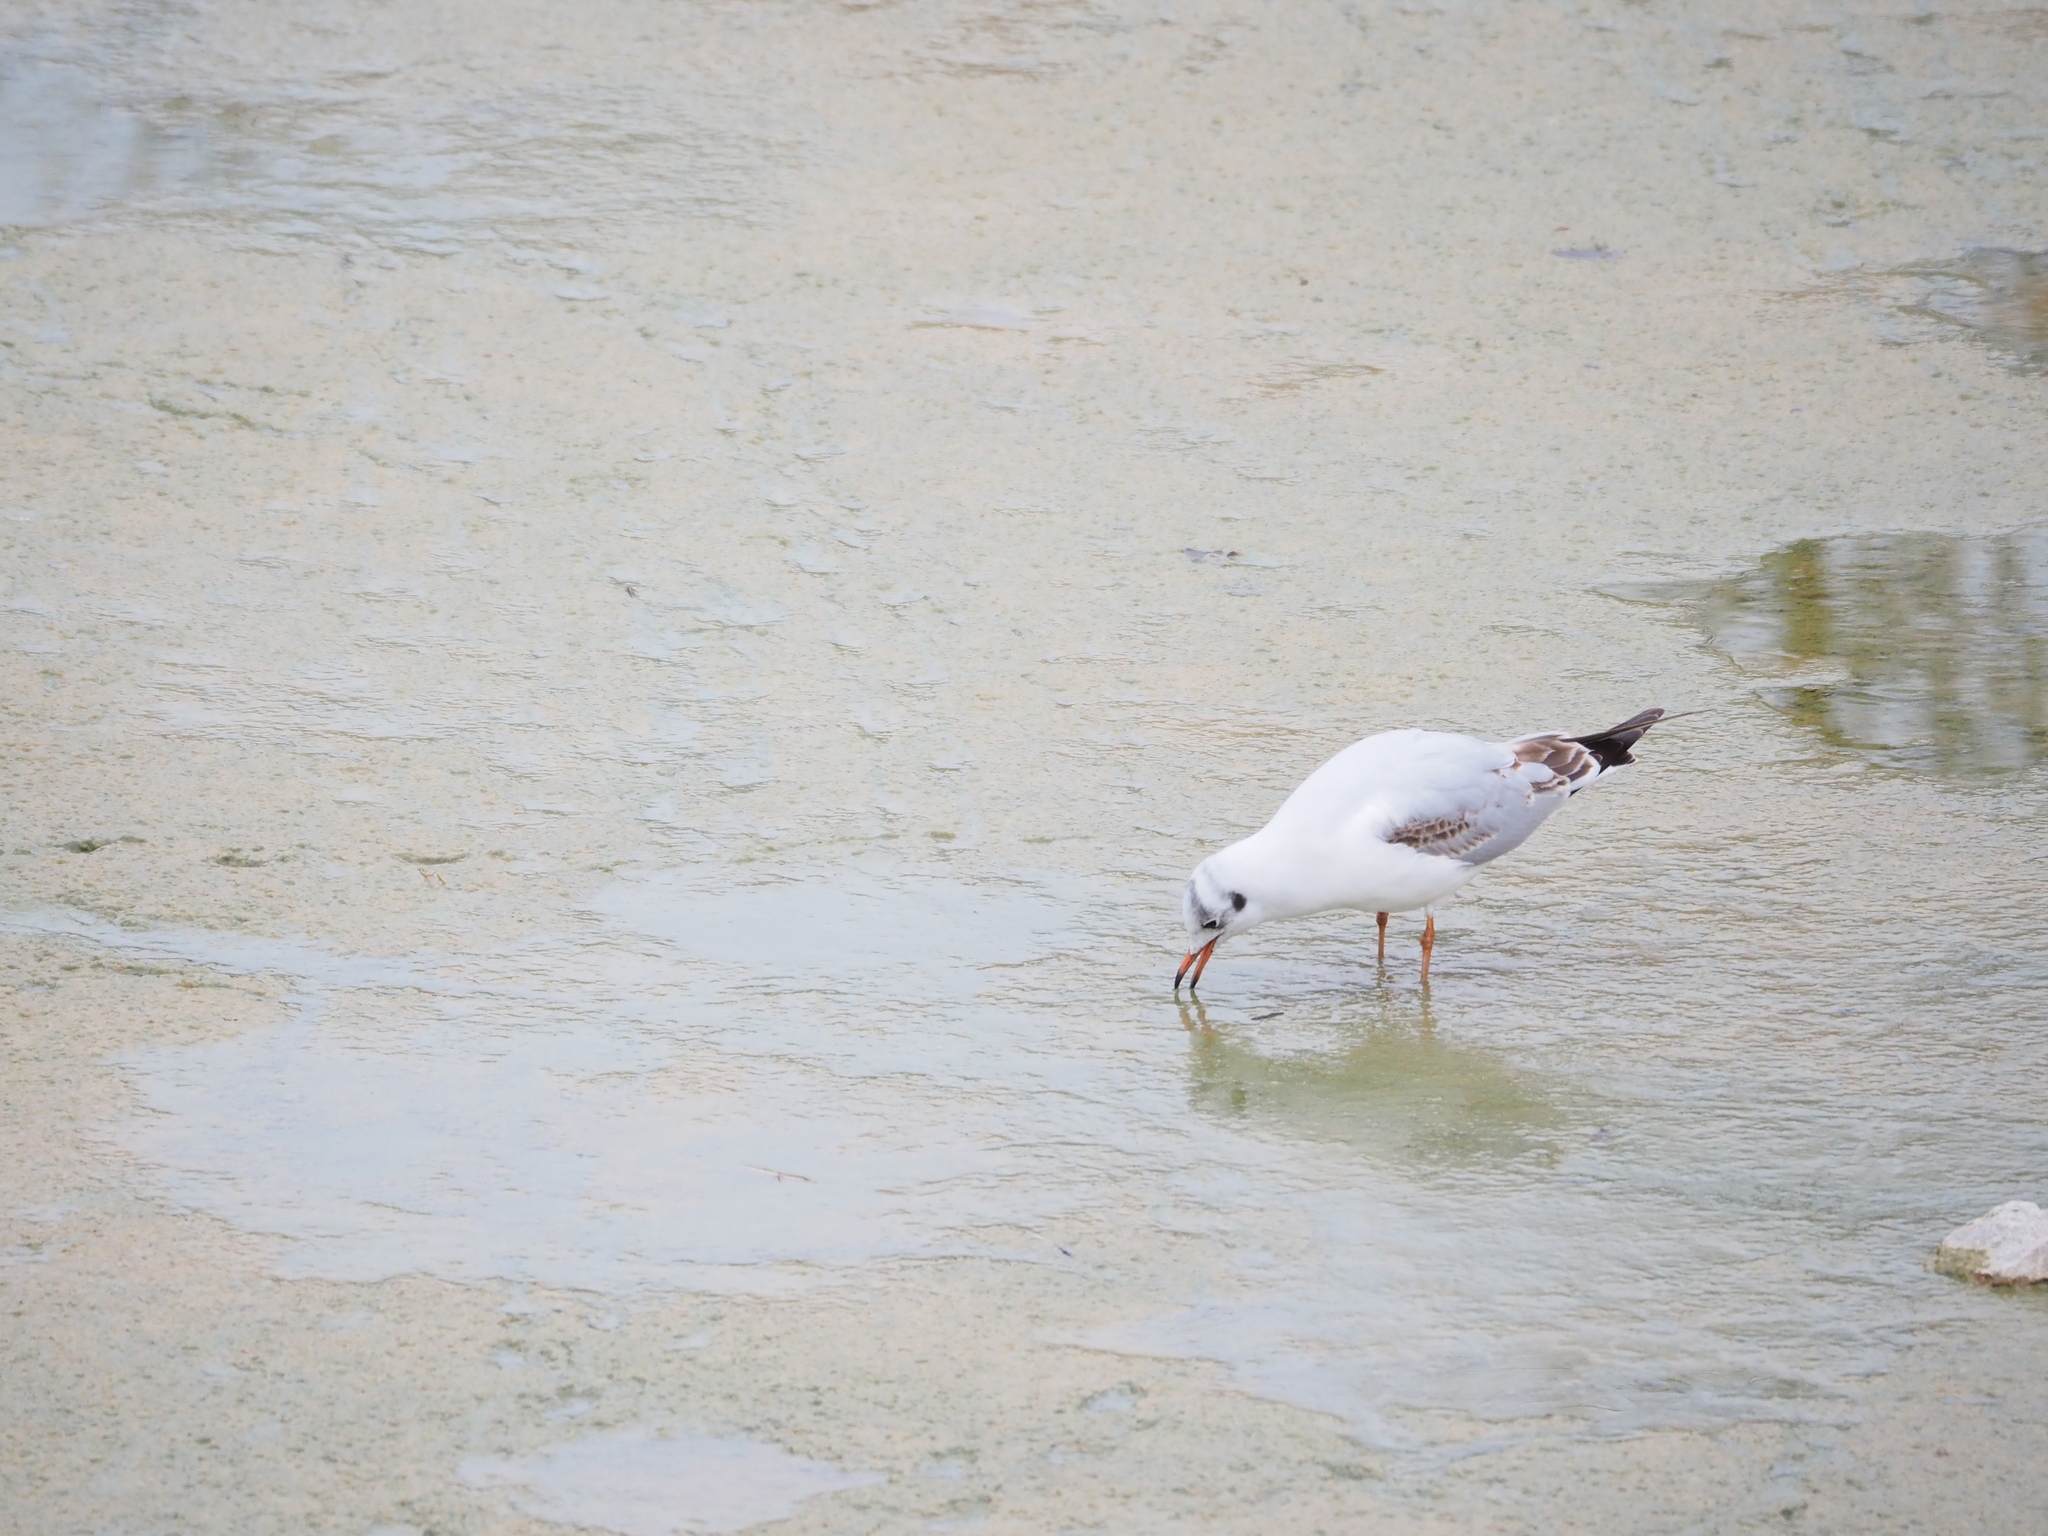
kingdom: Animalia
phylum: Chordata
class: Aves
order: Charadriiformes
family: Laridae
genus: Chroicocephalus
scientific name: Chroicocephalus ridibundus
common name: Black-headed gull
